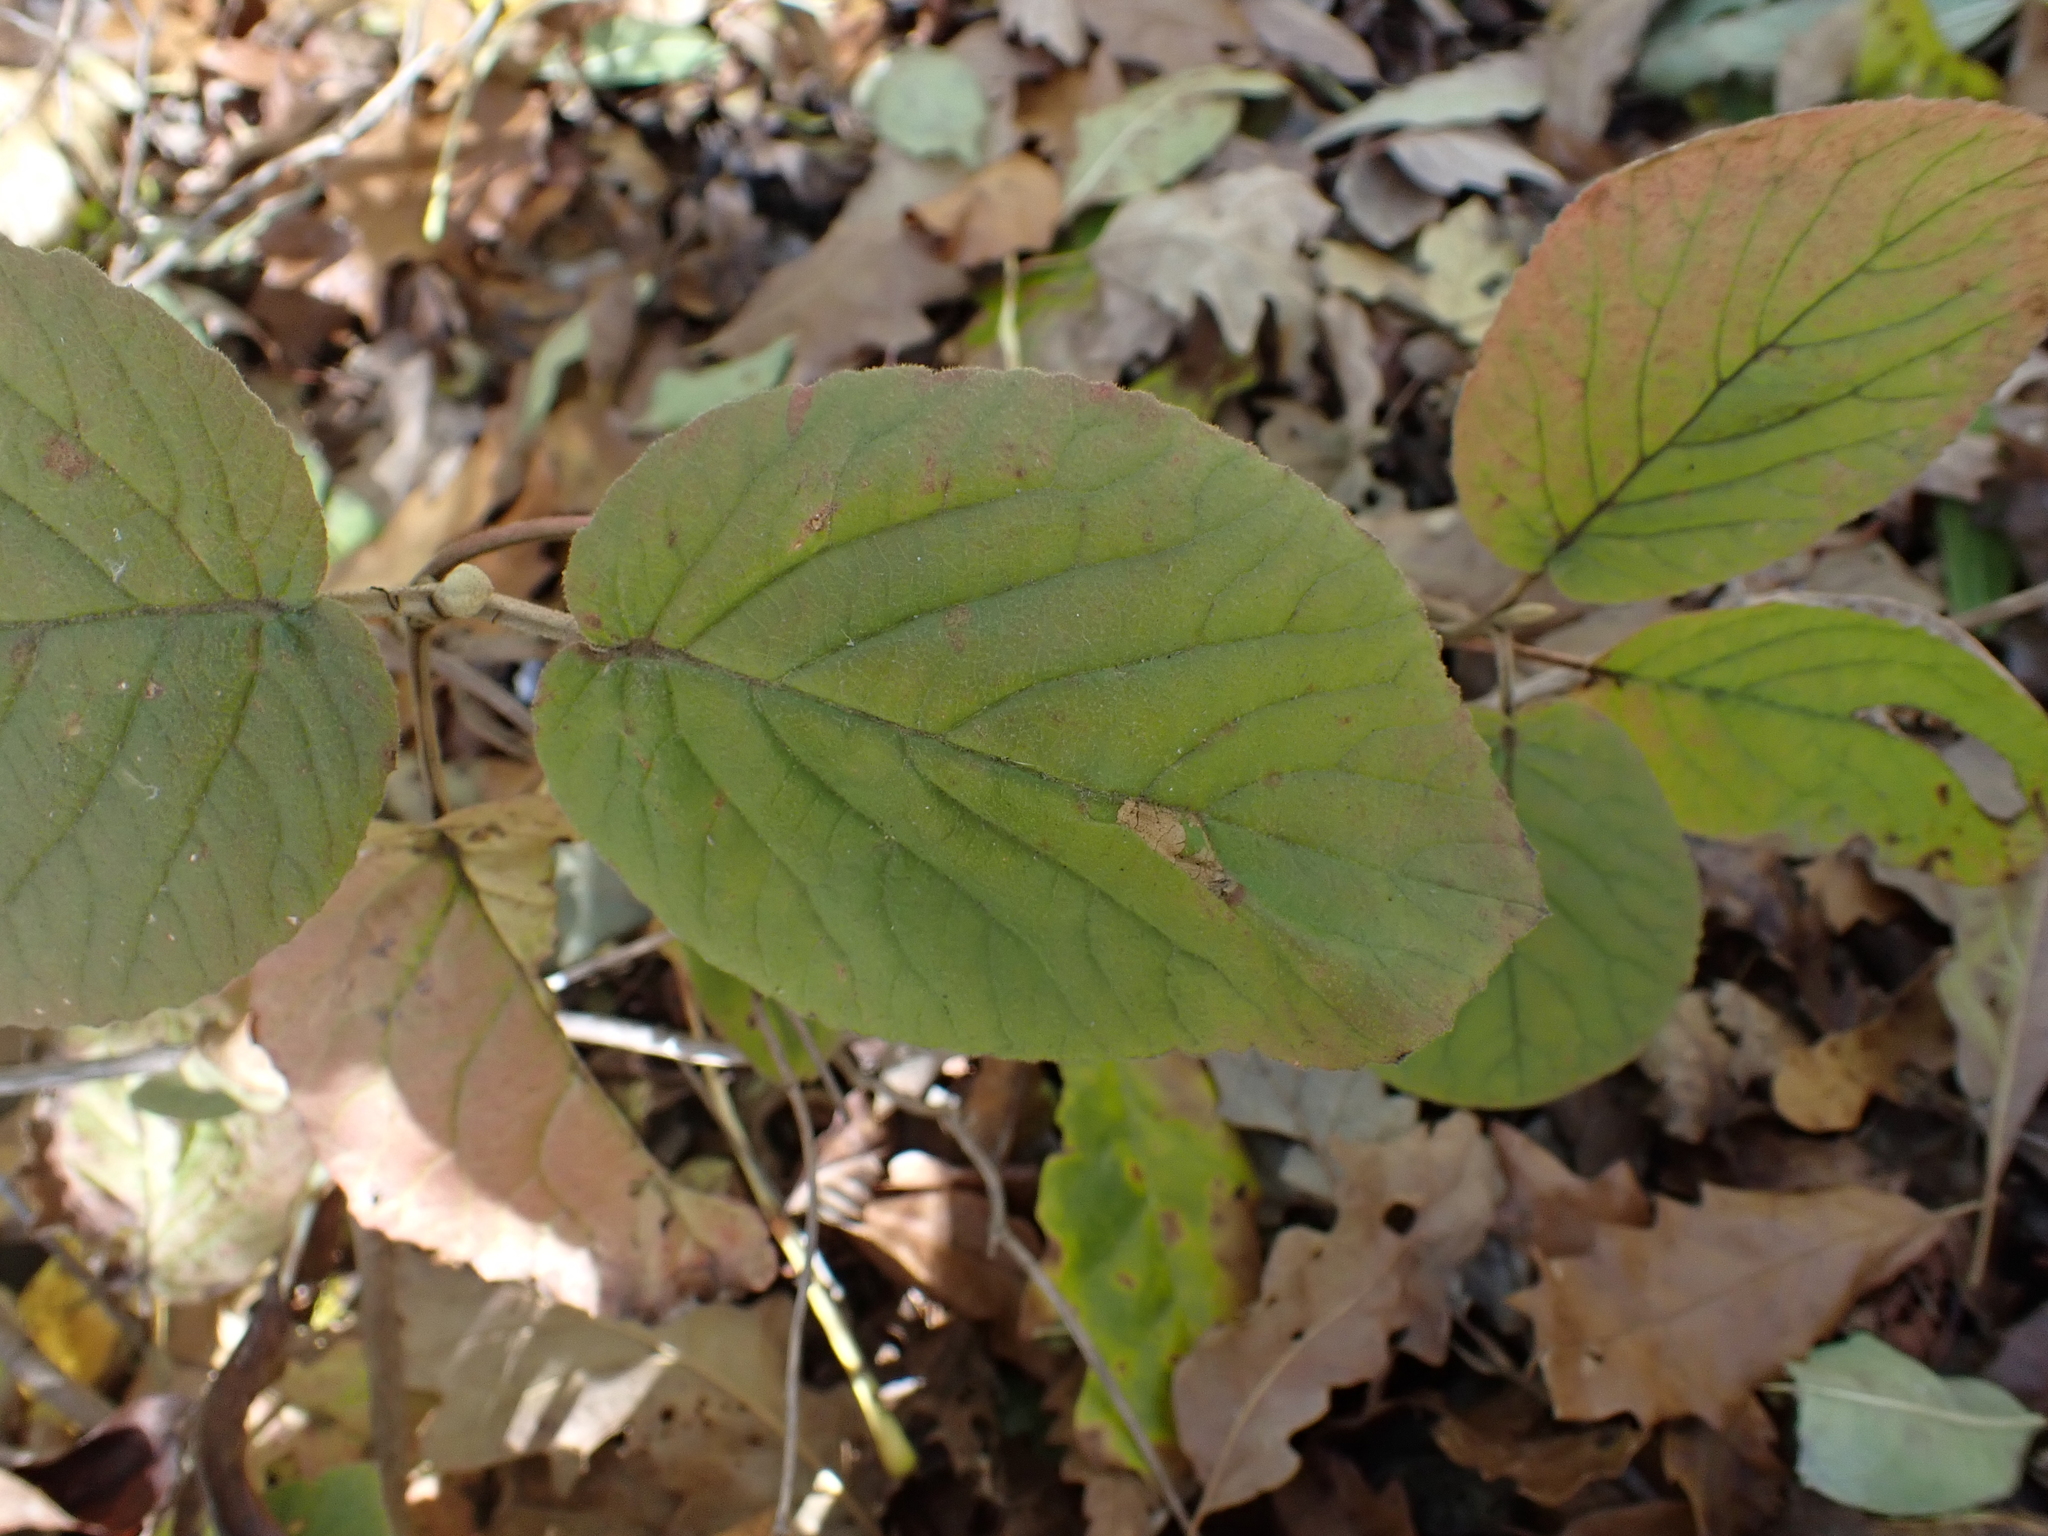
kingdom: Animalia
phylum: Arthropoda
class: Insecta
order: Lepidoptera
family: Gracillariidae
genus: Phyllonorycter
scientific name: Phyllonorycter lantanella
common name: Viburnum midget
